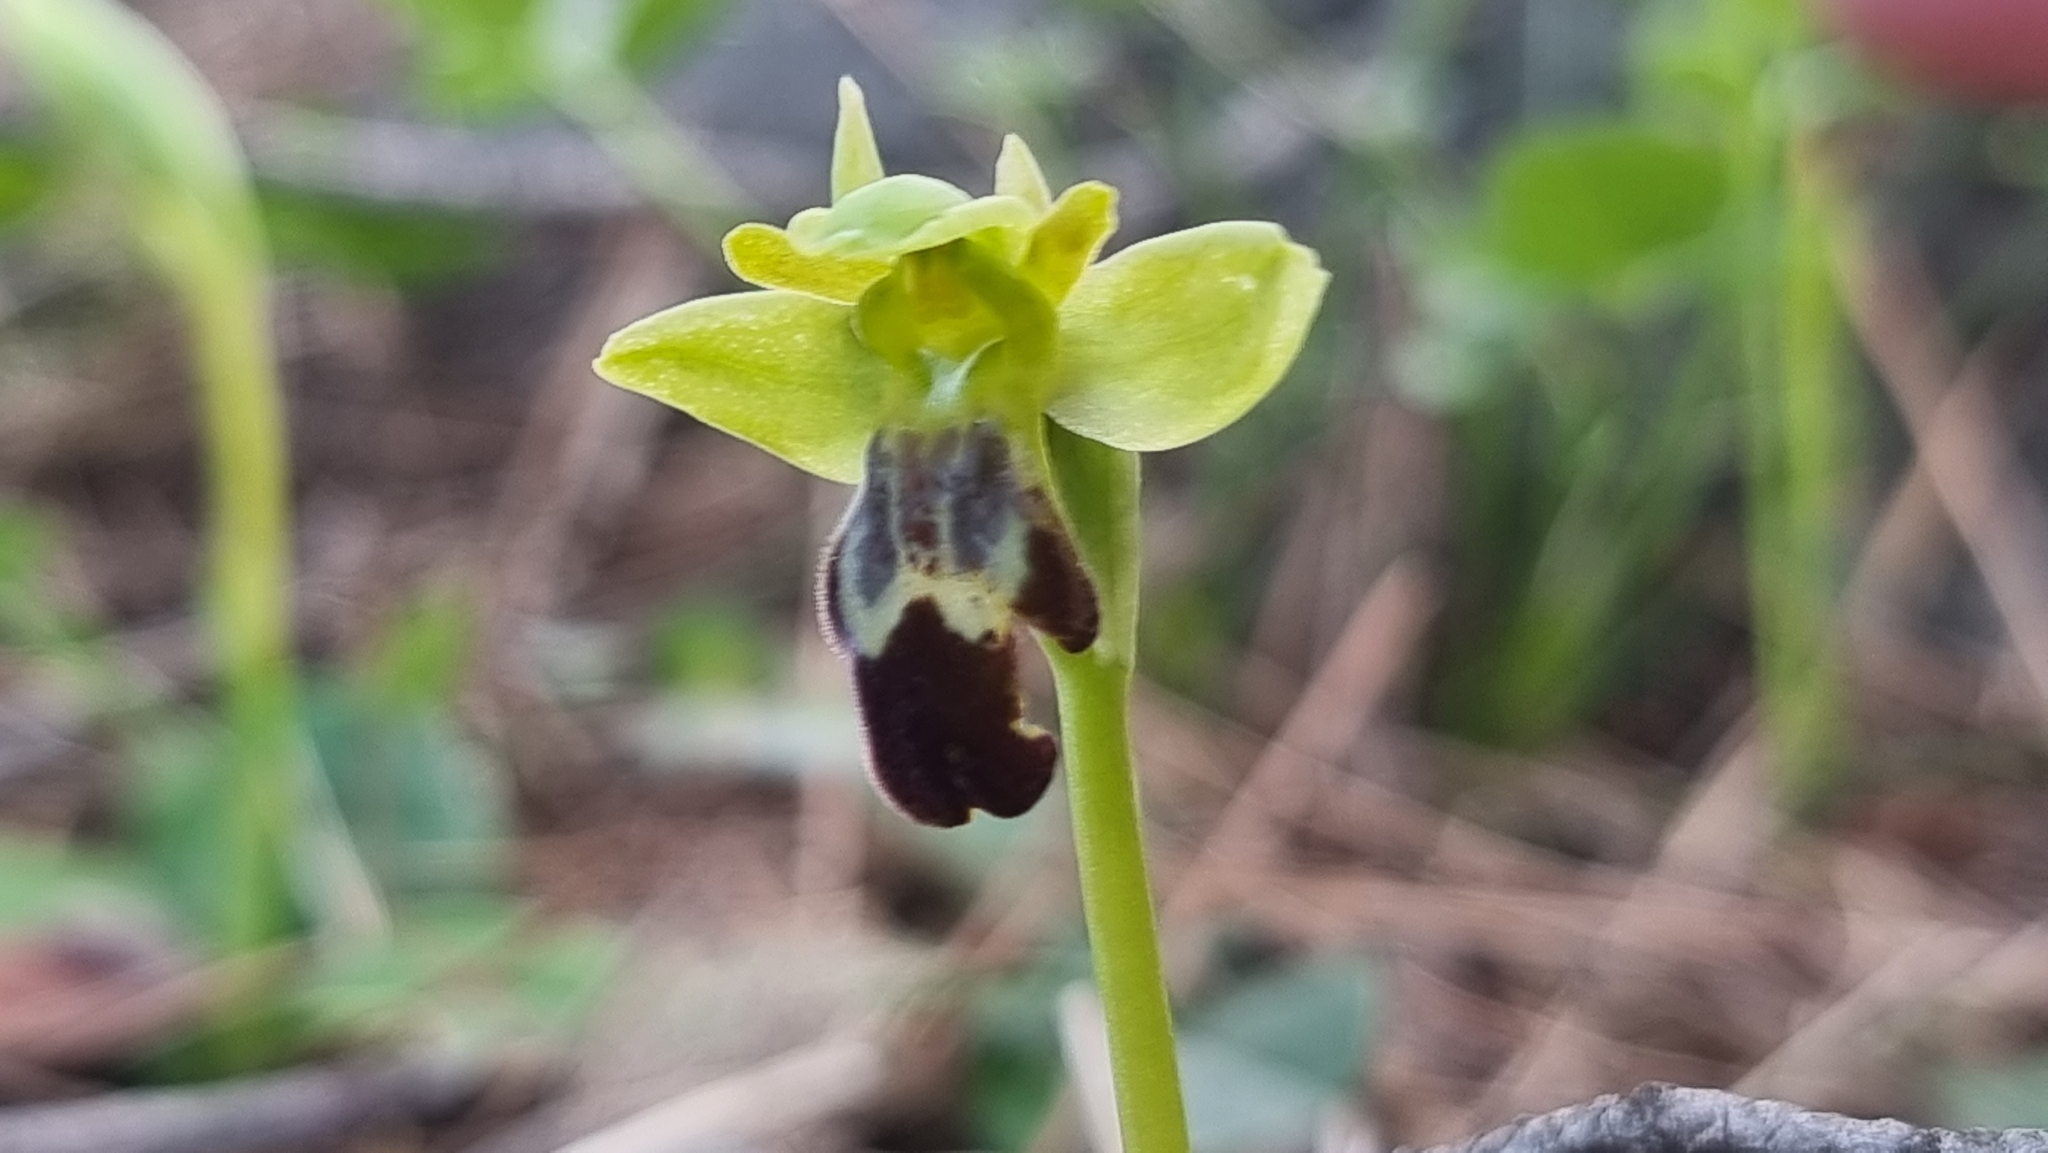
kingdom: Plantae
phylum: Tracheophyta
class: Liliopsida
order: Asparagales
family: Orchidaceae
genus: Ophrys
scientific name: Ophrys fusca
